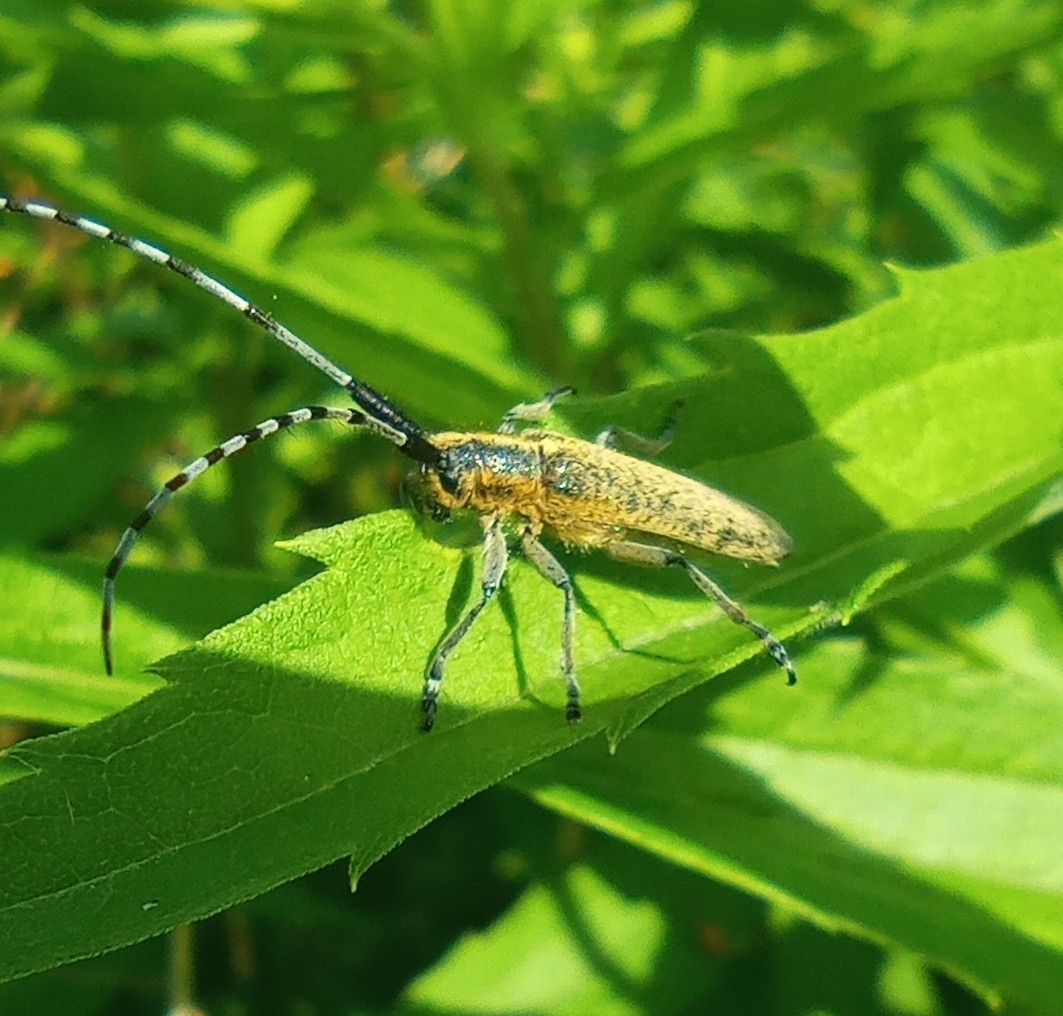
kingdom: Animalia
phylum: Arthropoda
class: Insecta
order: Coleoptera
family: Cerambycidae
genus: Agapanthia
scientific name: Agapanthia villosoviridescens
